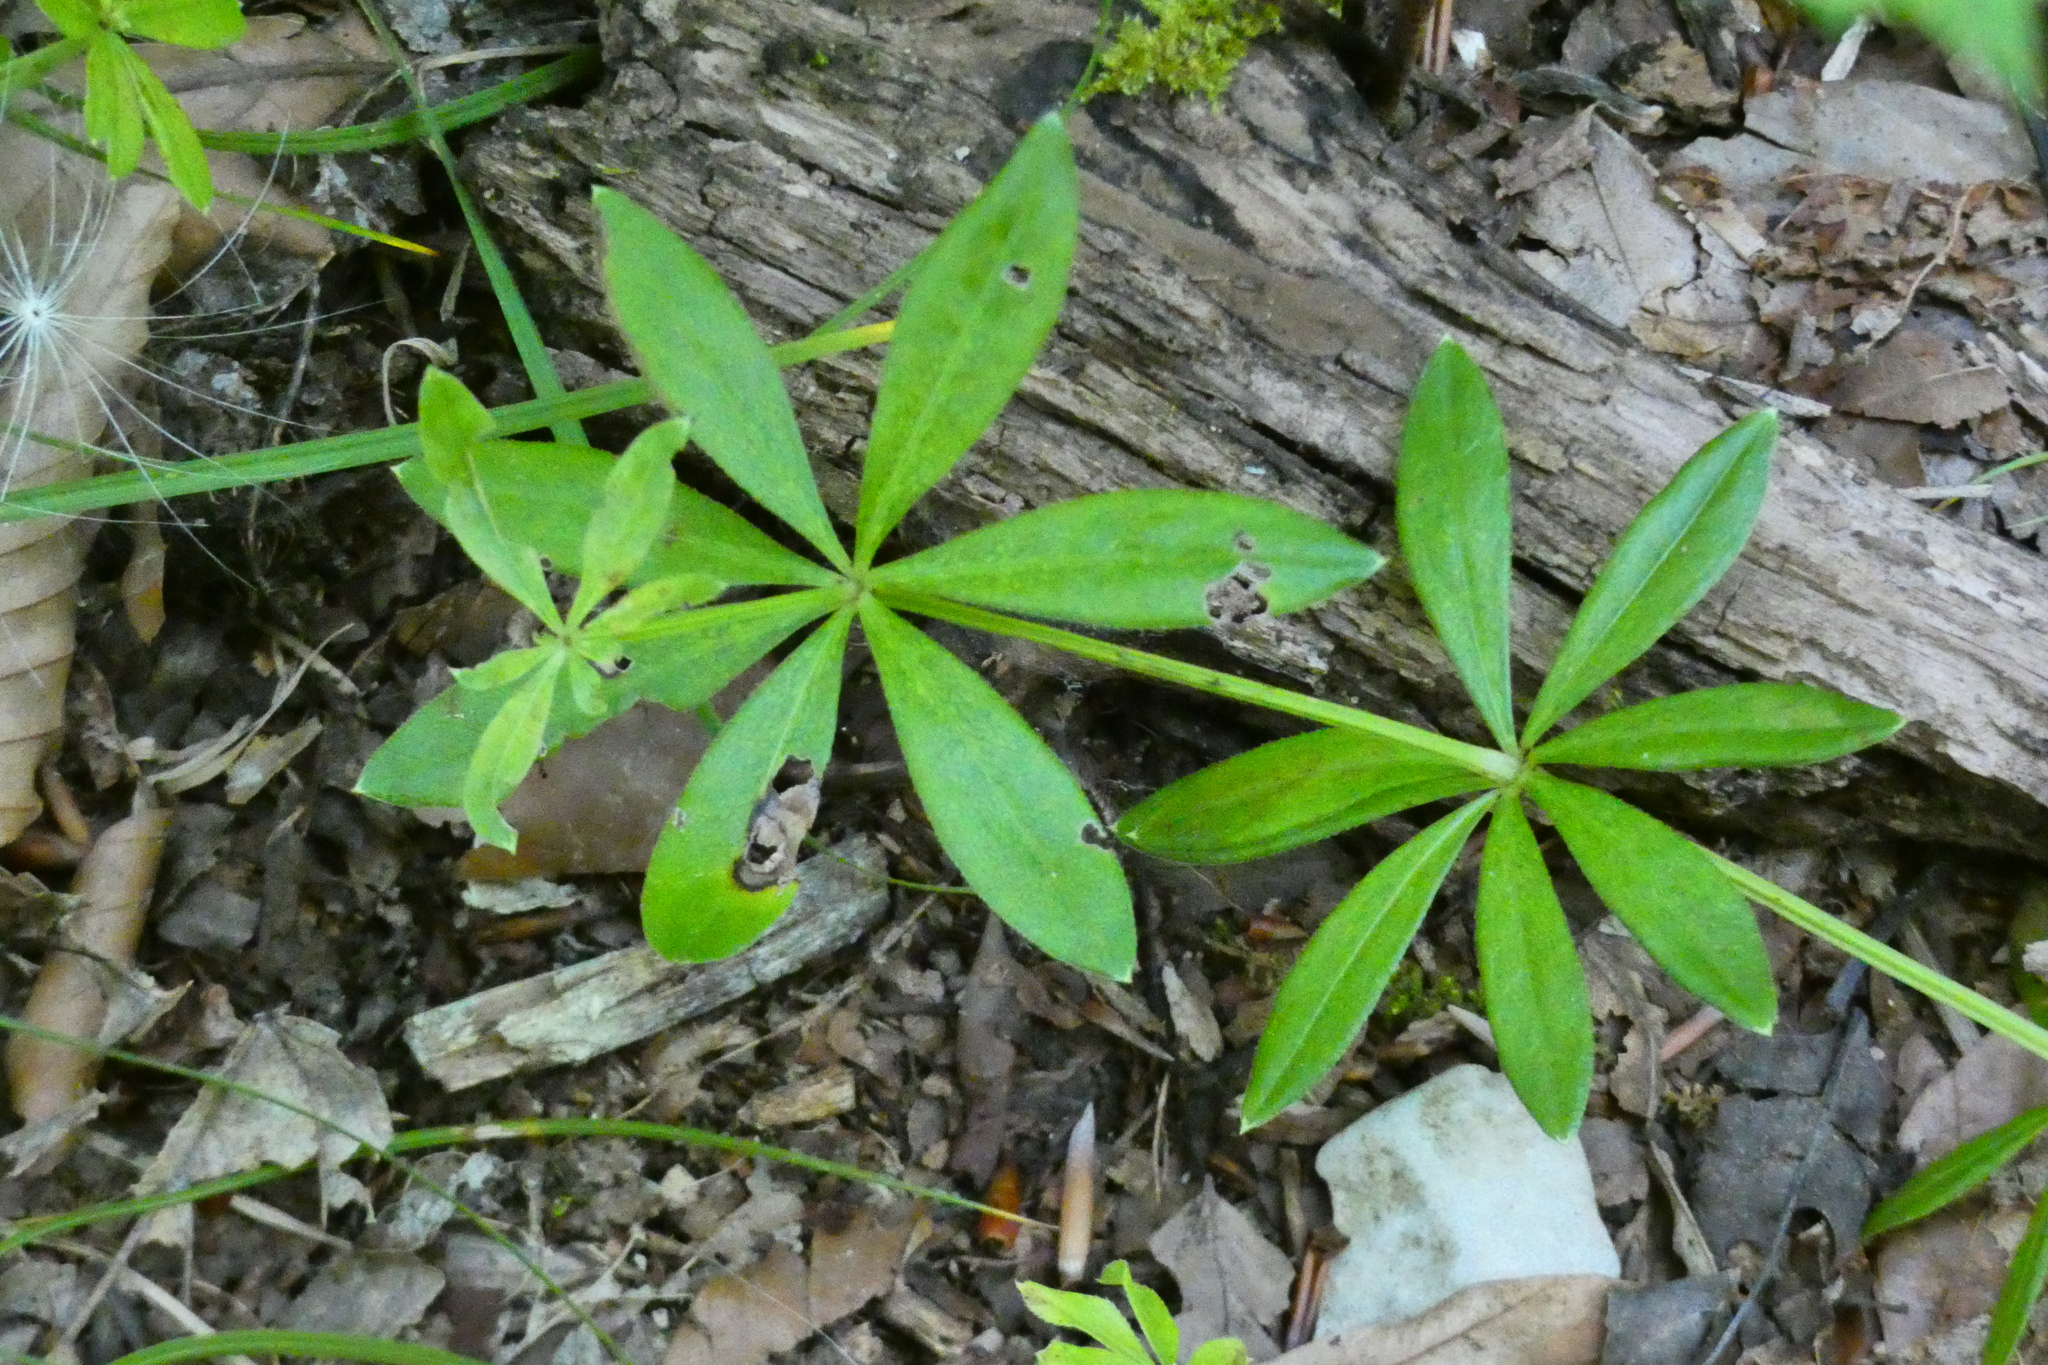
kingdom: Plantae
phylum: Tracheophyta
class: Magnoliopsida
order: Gentianales
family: Rubiaceae
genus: Galium
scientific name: Galium odoratum
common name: Sweet woodruff
